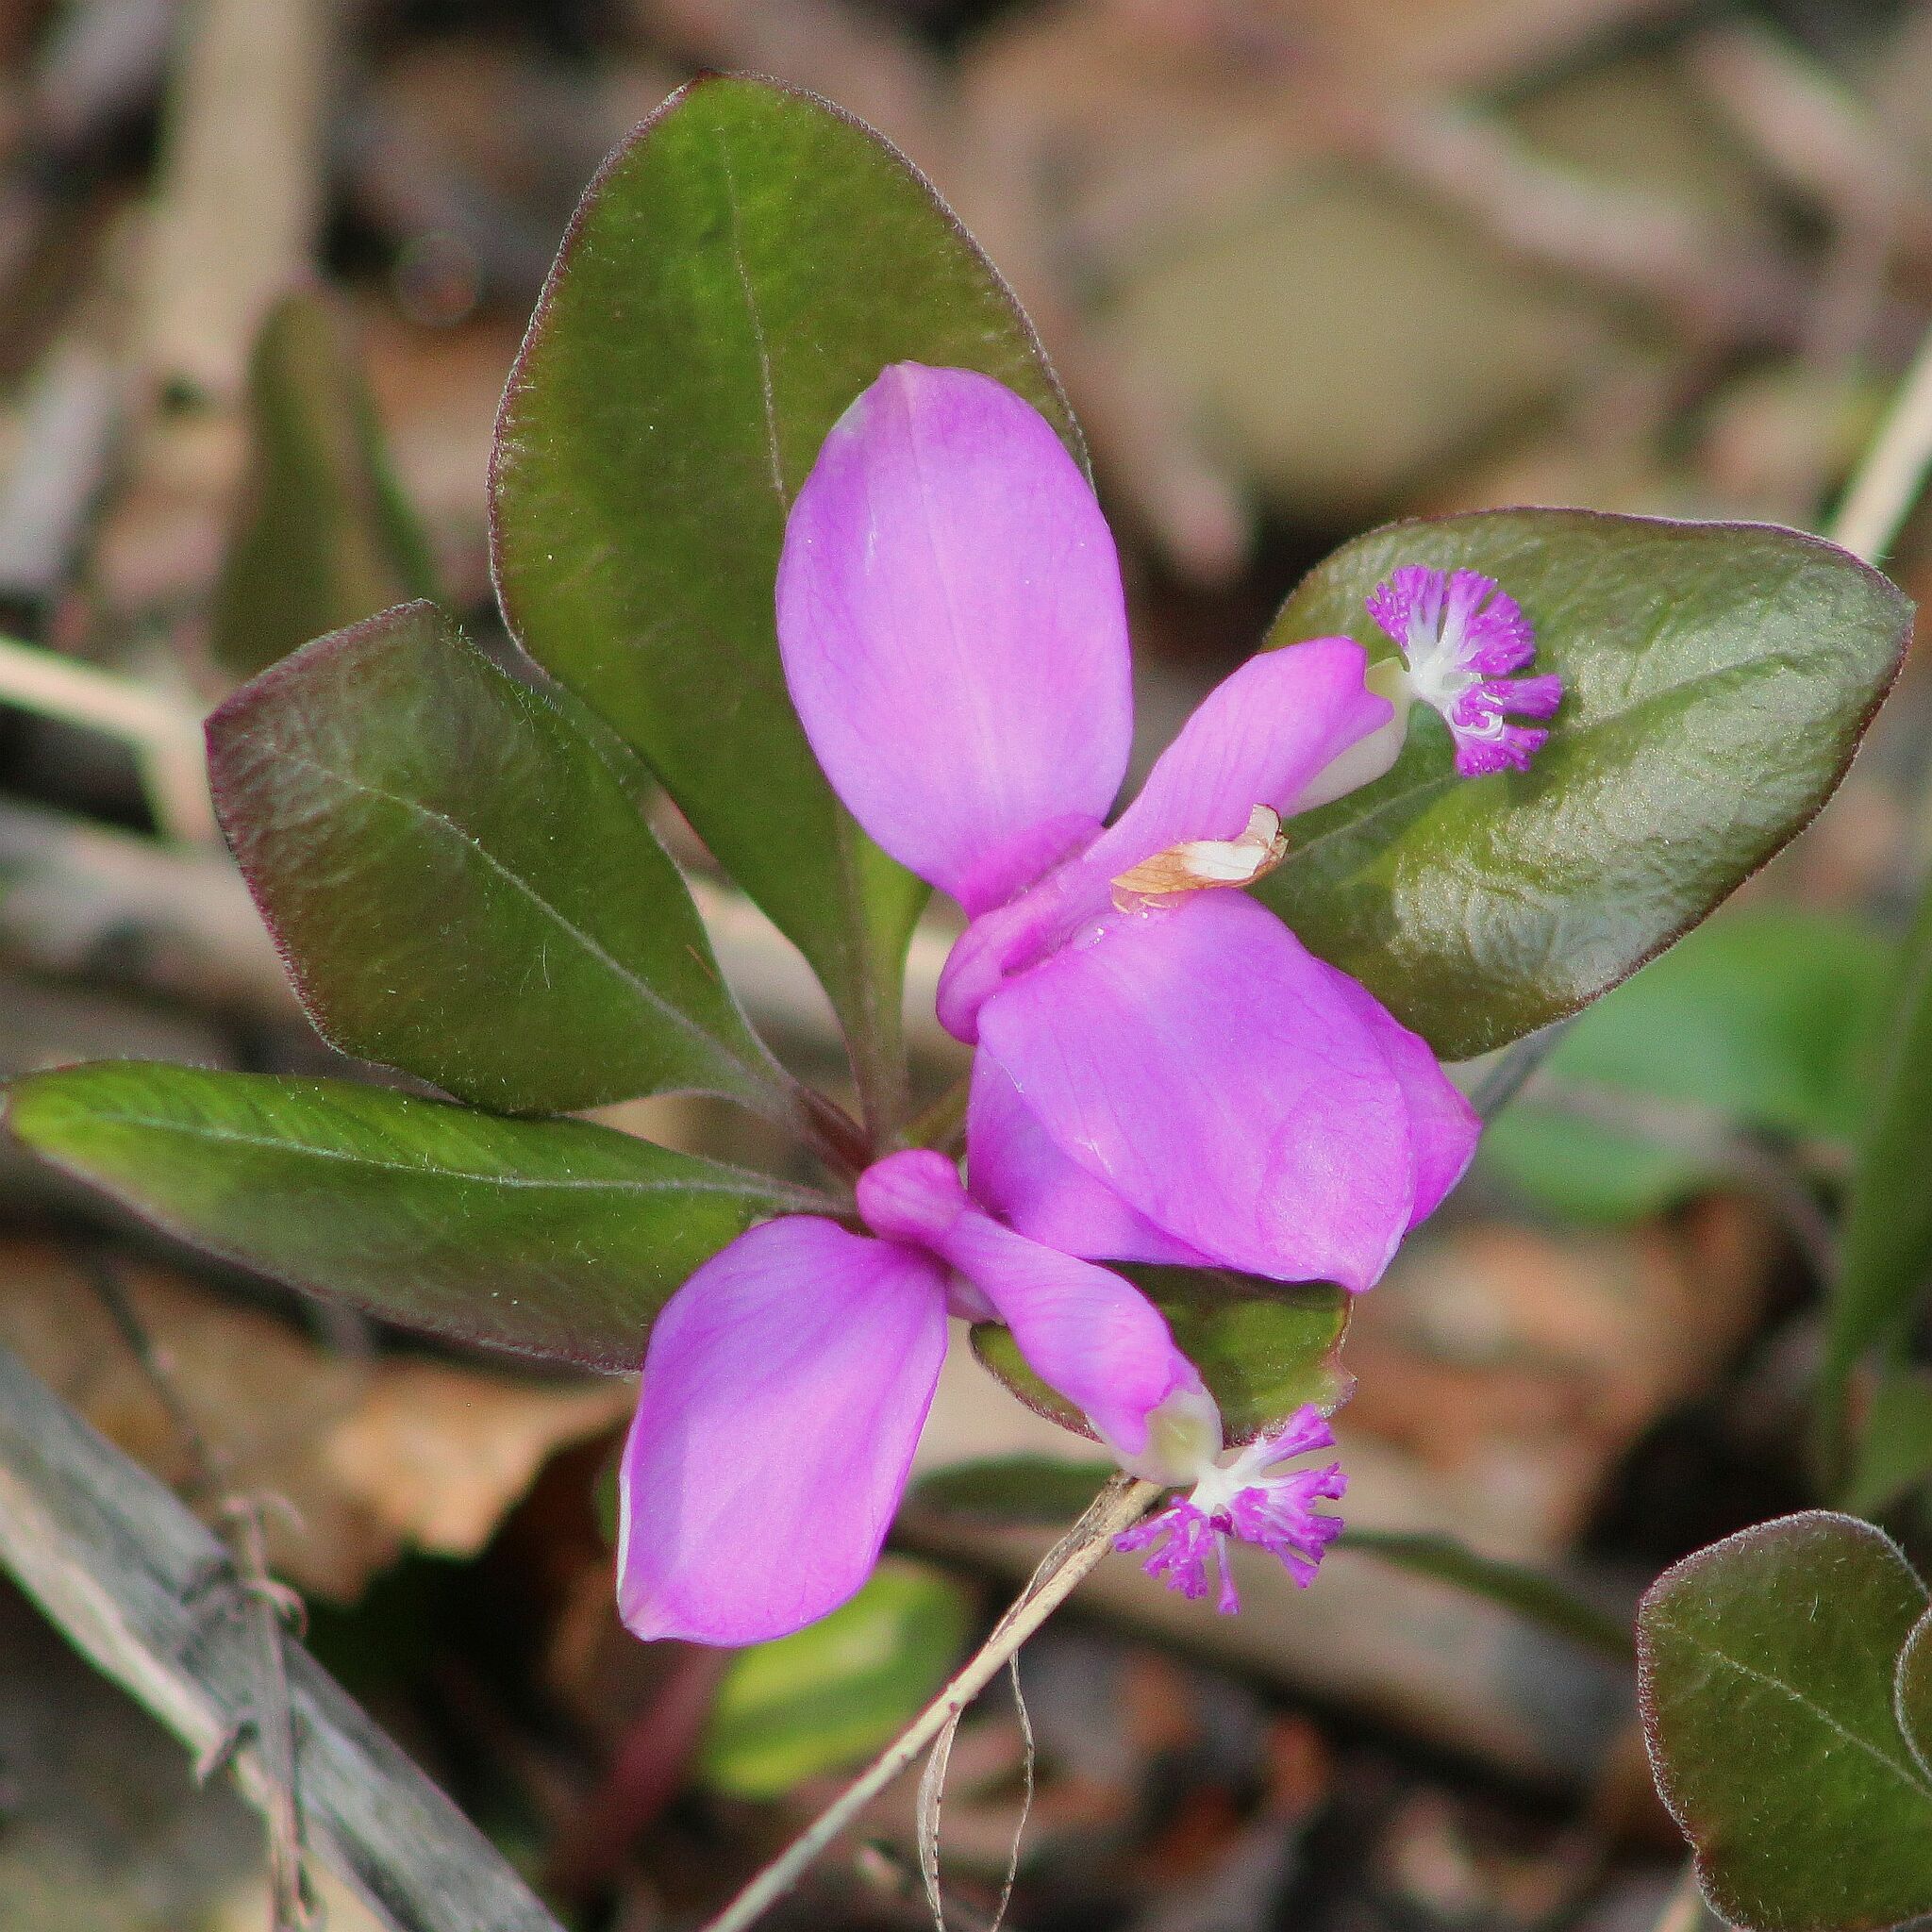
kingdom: Plantae
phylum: Tracheophyta
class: Magnoliopsida
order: Fabales
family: Polygalaceae
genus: Polygaloides
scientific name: Polygaloides paucifolia
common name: Bird-on-the-wing
